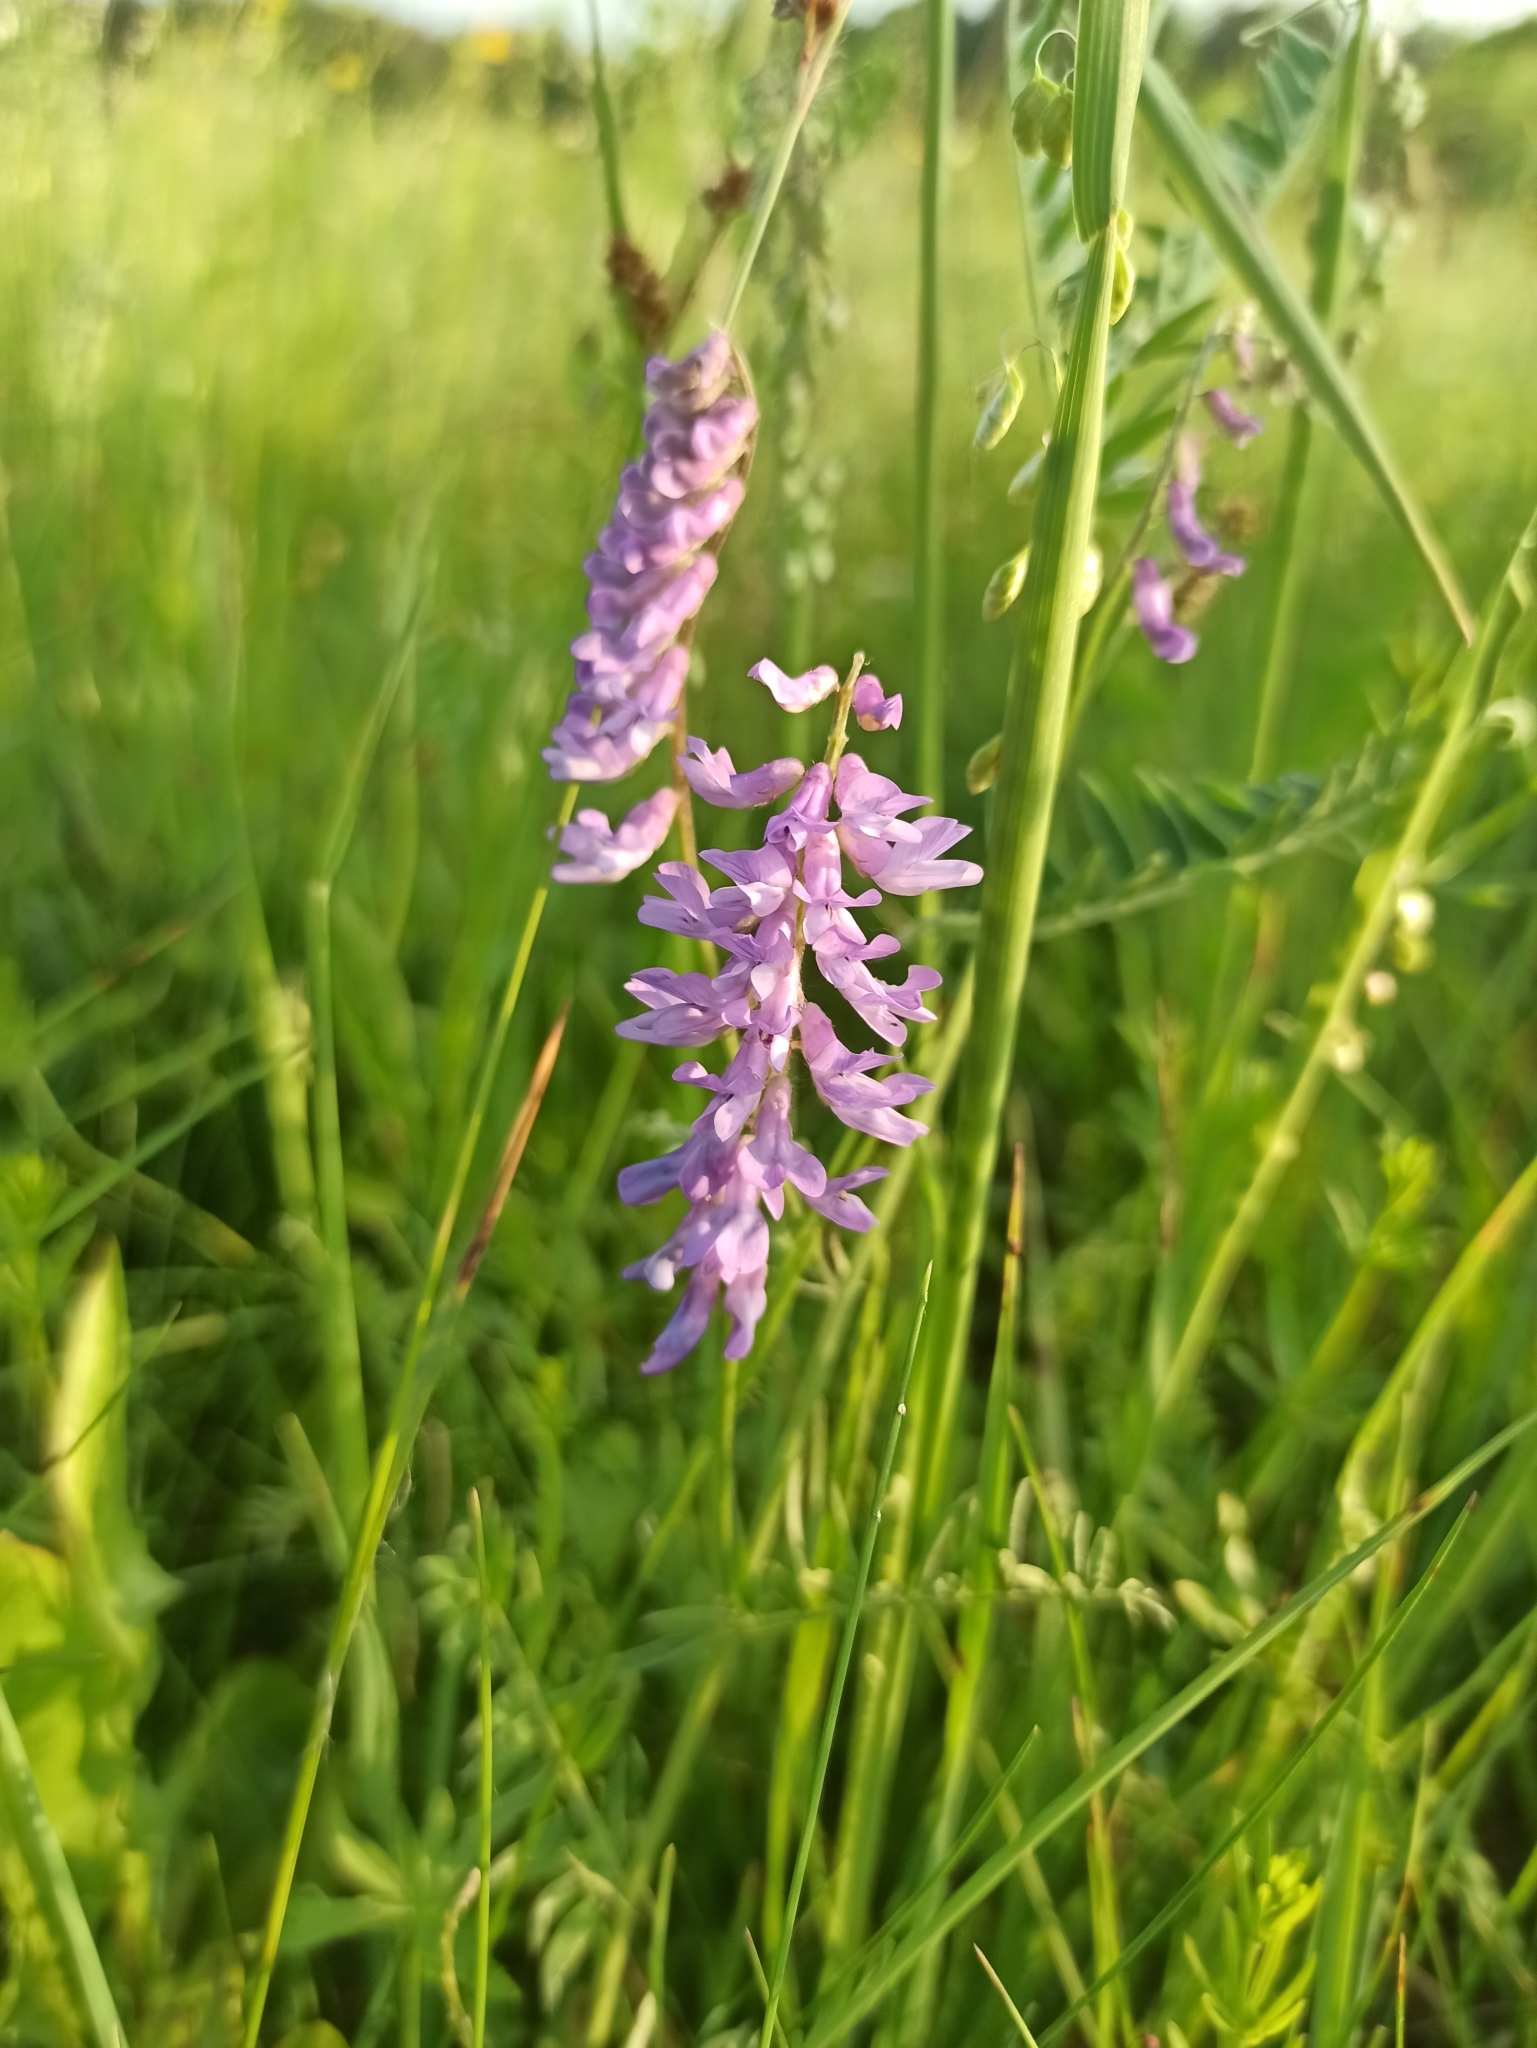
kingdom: Plantae
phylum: Tracheophyta
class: Magnoliopsida
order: Fabales
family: Fabaceae
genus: Vicia
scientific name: Vicia cracca
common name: Bird vetch
